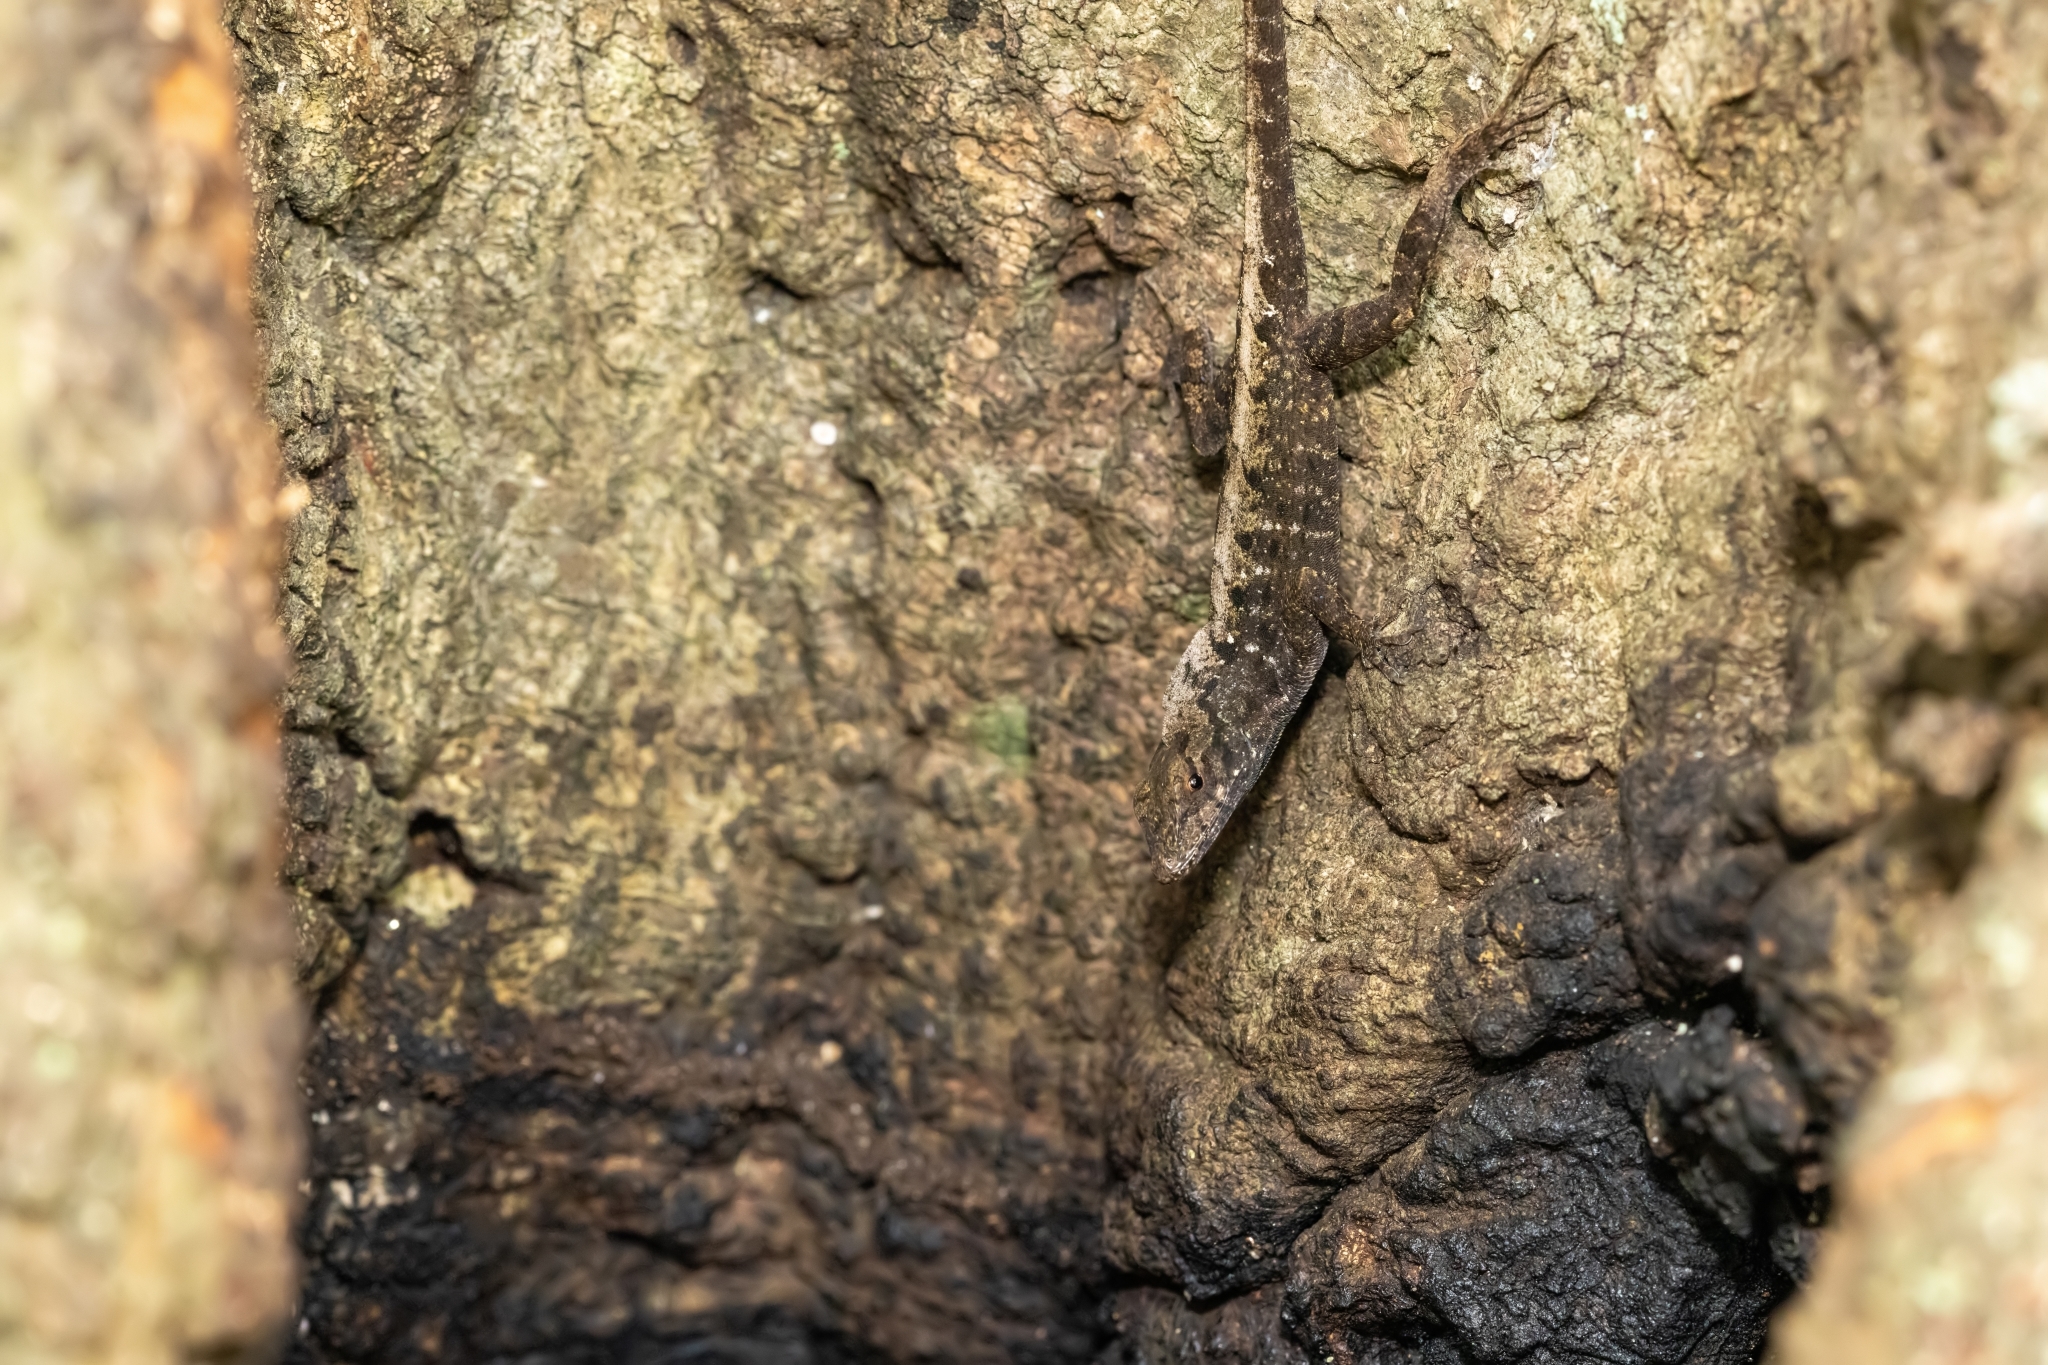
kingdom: Animalia
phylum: Chordata
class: Squamata
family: Dactyloidae
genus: Anolis
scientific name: Anolis sagrei
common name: Brown anole
